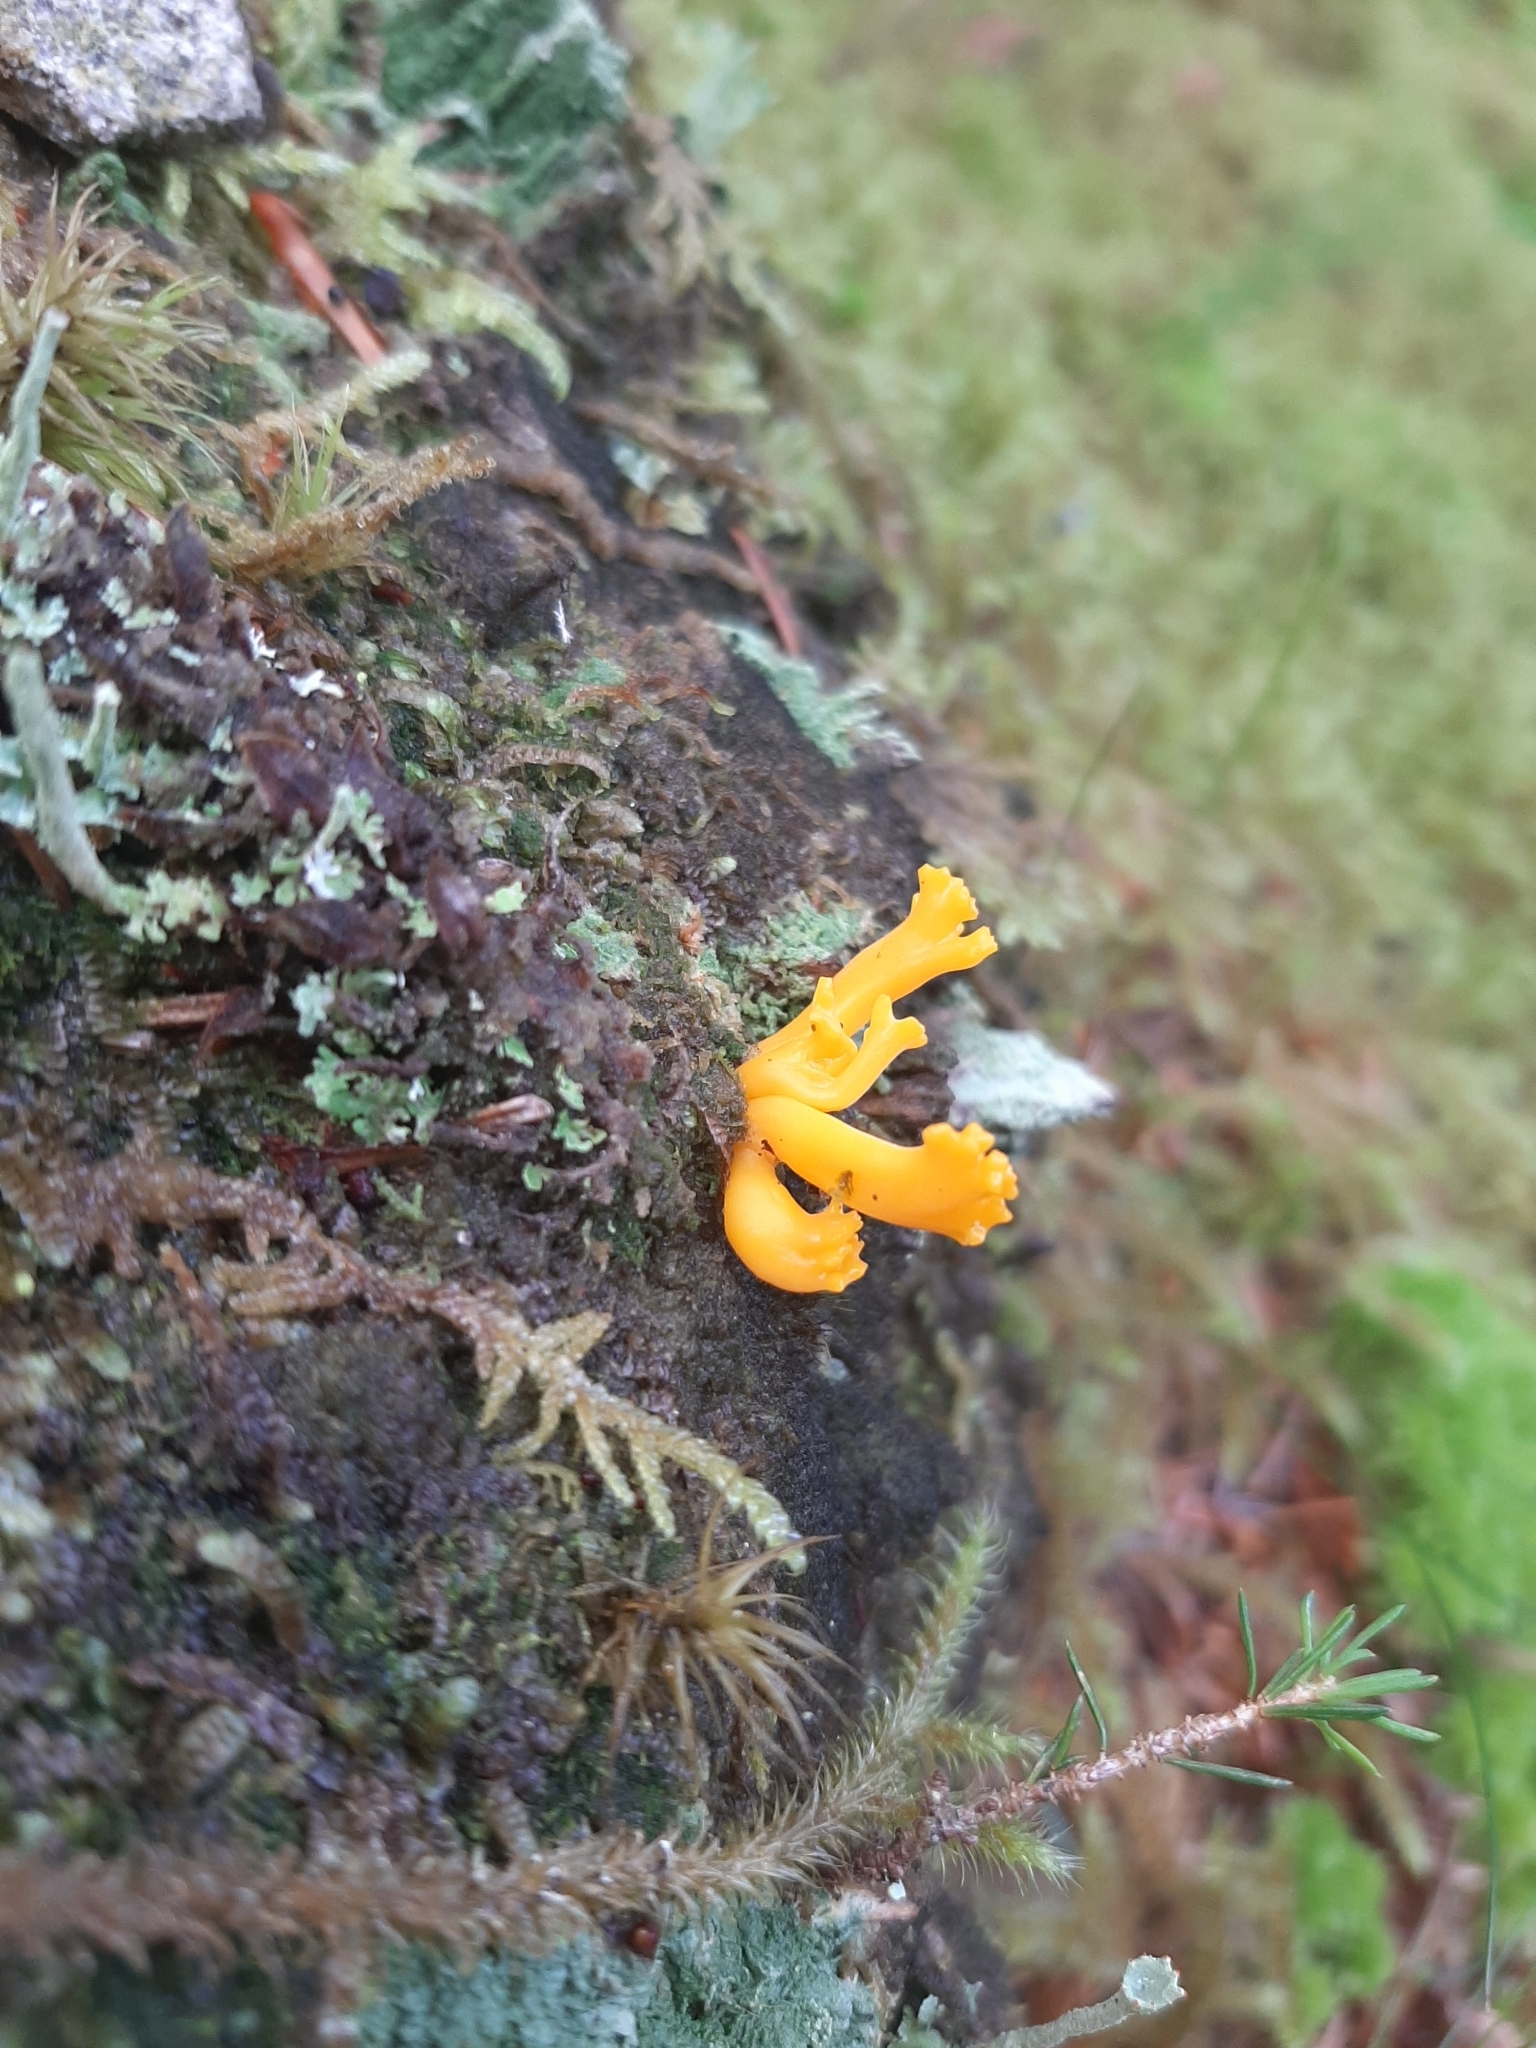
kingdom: Fungi
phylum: Basidiomycota
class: Dacrymycetes
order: Dacrymycetales
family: Dacrymycetaceae
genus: Calocera
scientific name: Calocera viscosa
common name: Yellow stagshorn
